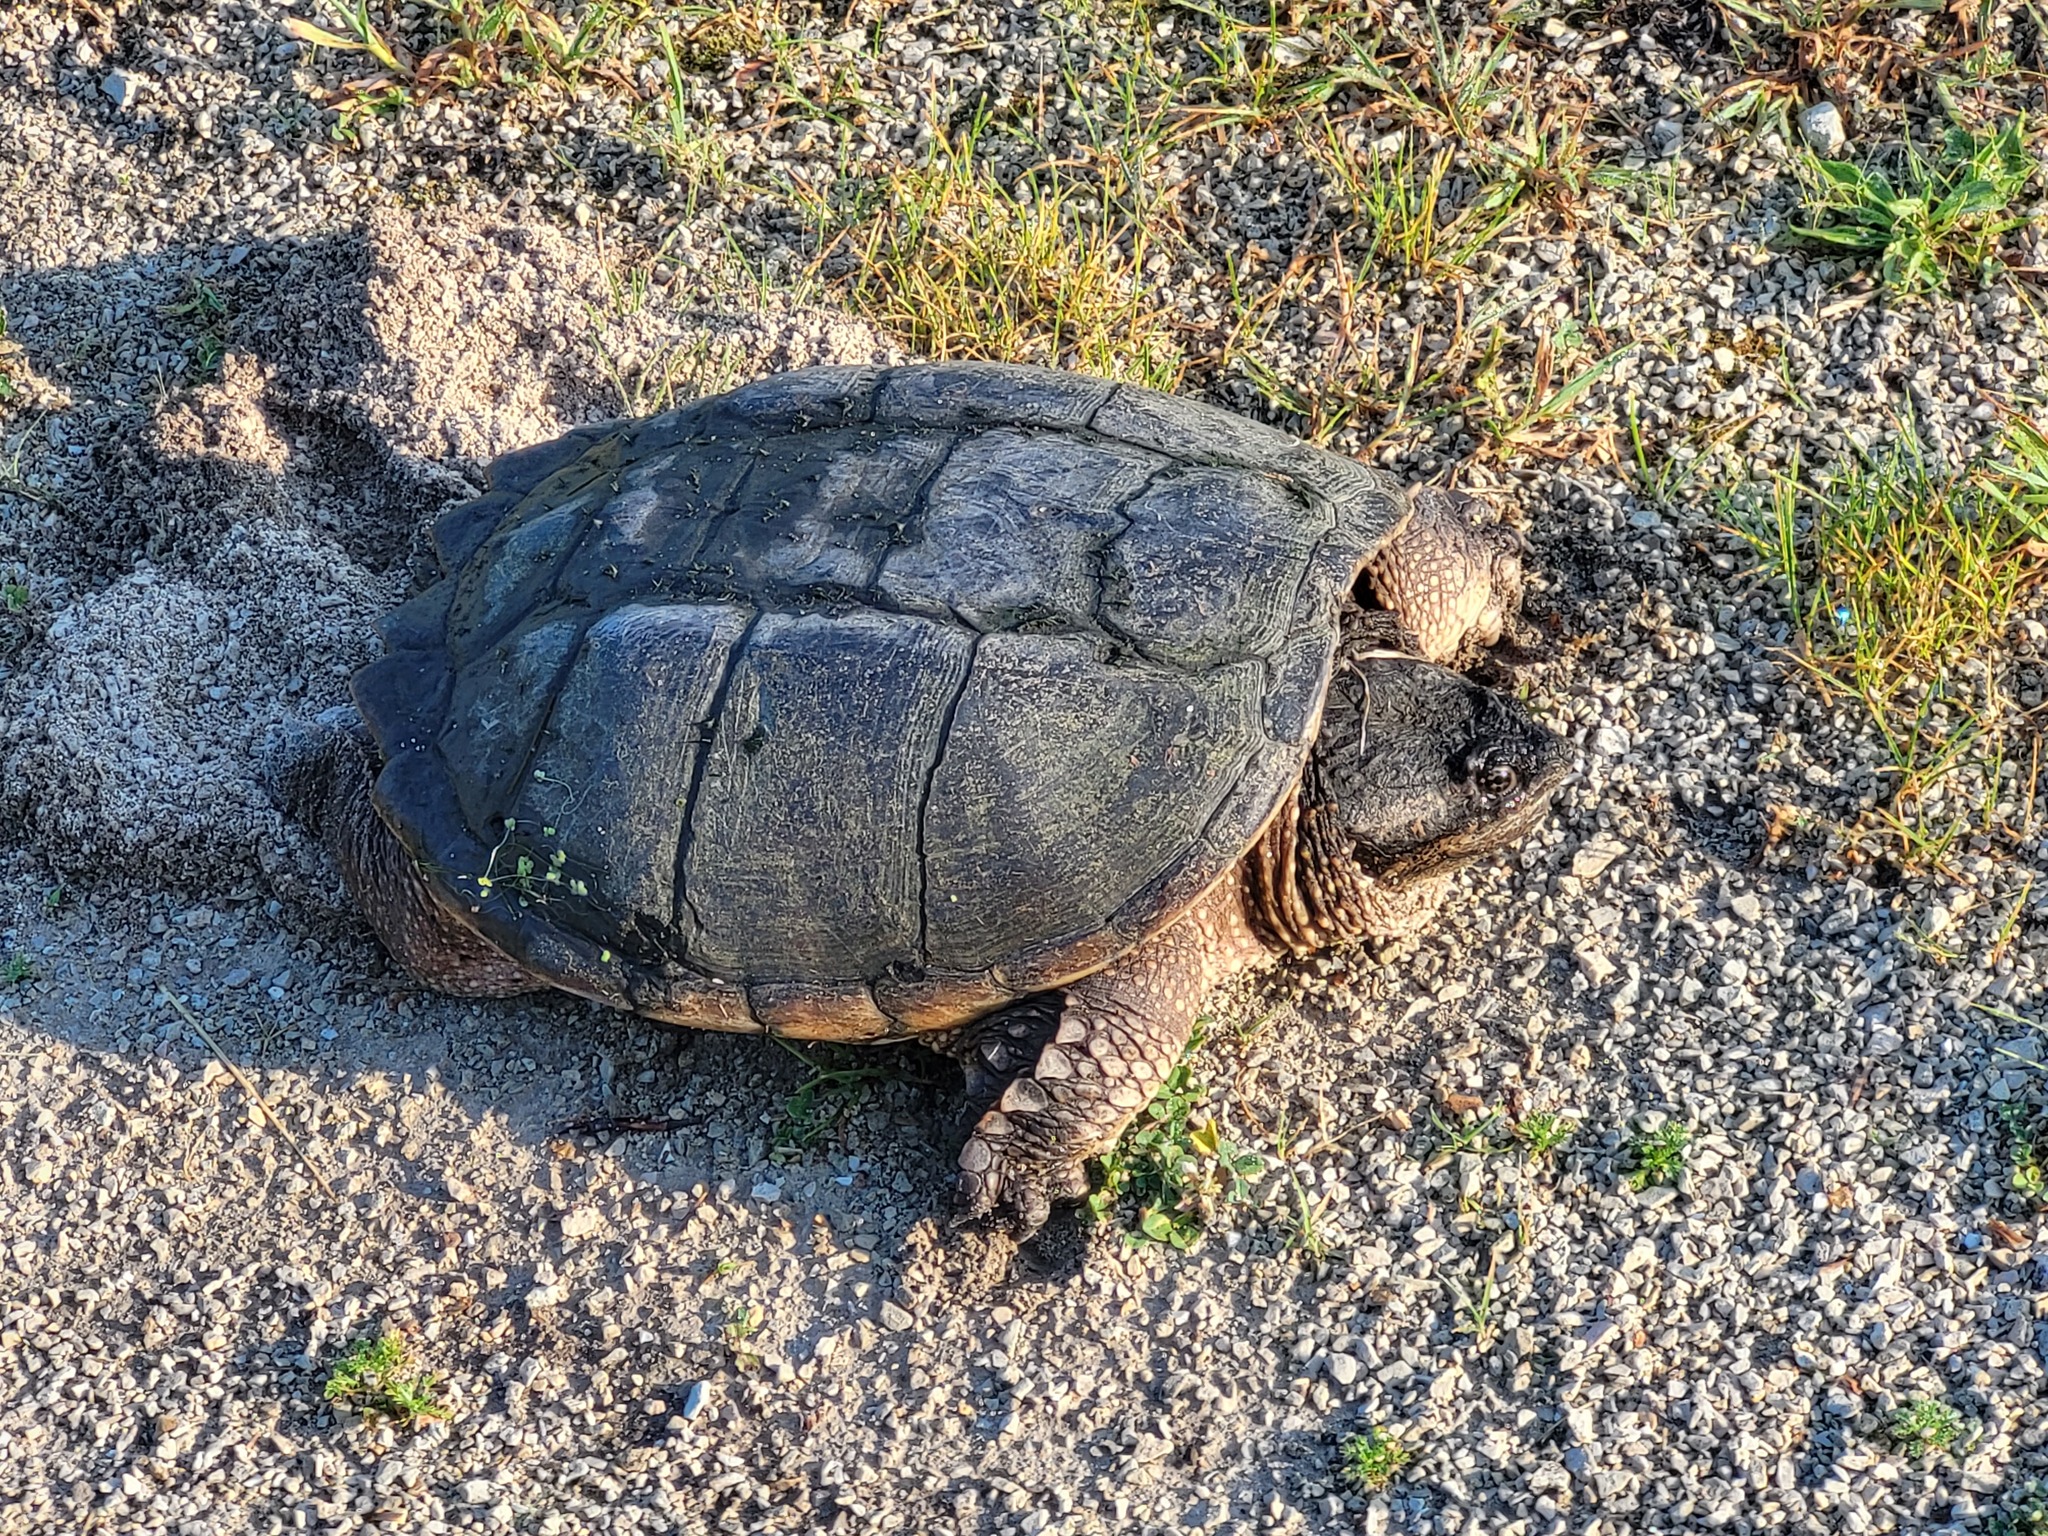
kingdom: Animalia
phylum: Chordata
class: Testudines
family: Chelydridae
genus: Chelydra
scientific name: Chelydra serpentina
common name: Common snapping turtle
